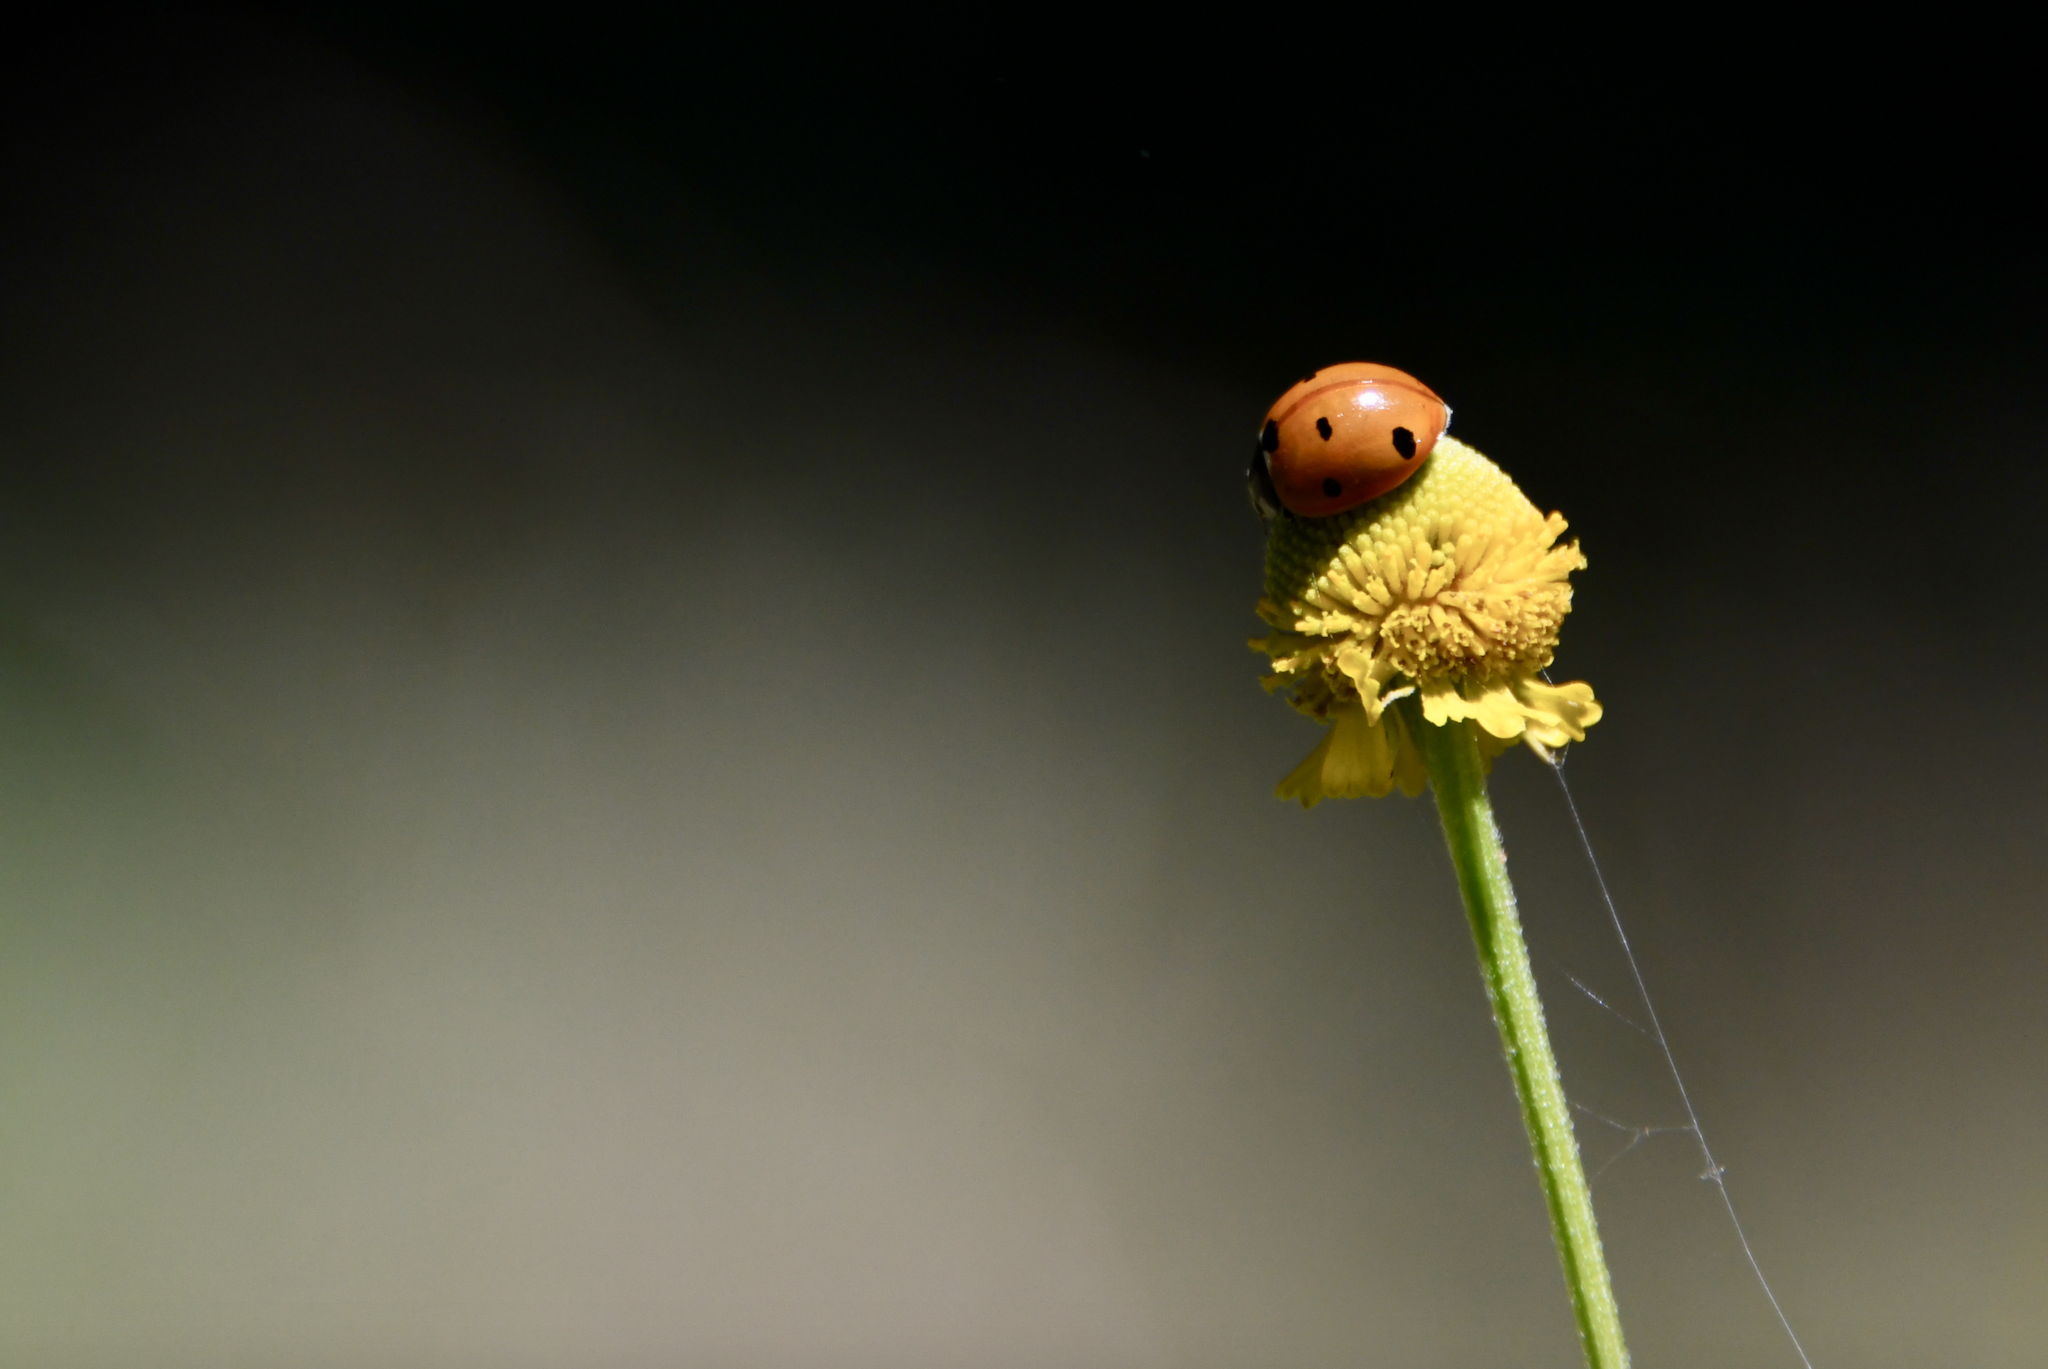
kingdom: Plantae
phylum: Tracheophyta
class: Magnoliopsida
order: Asterales
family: Asteraceae
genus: Helenium
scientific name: Helenium puberulum
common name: Sneezewort
